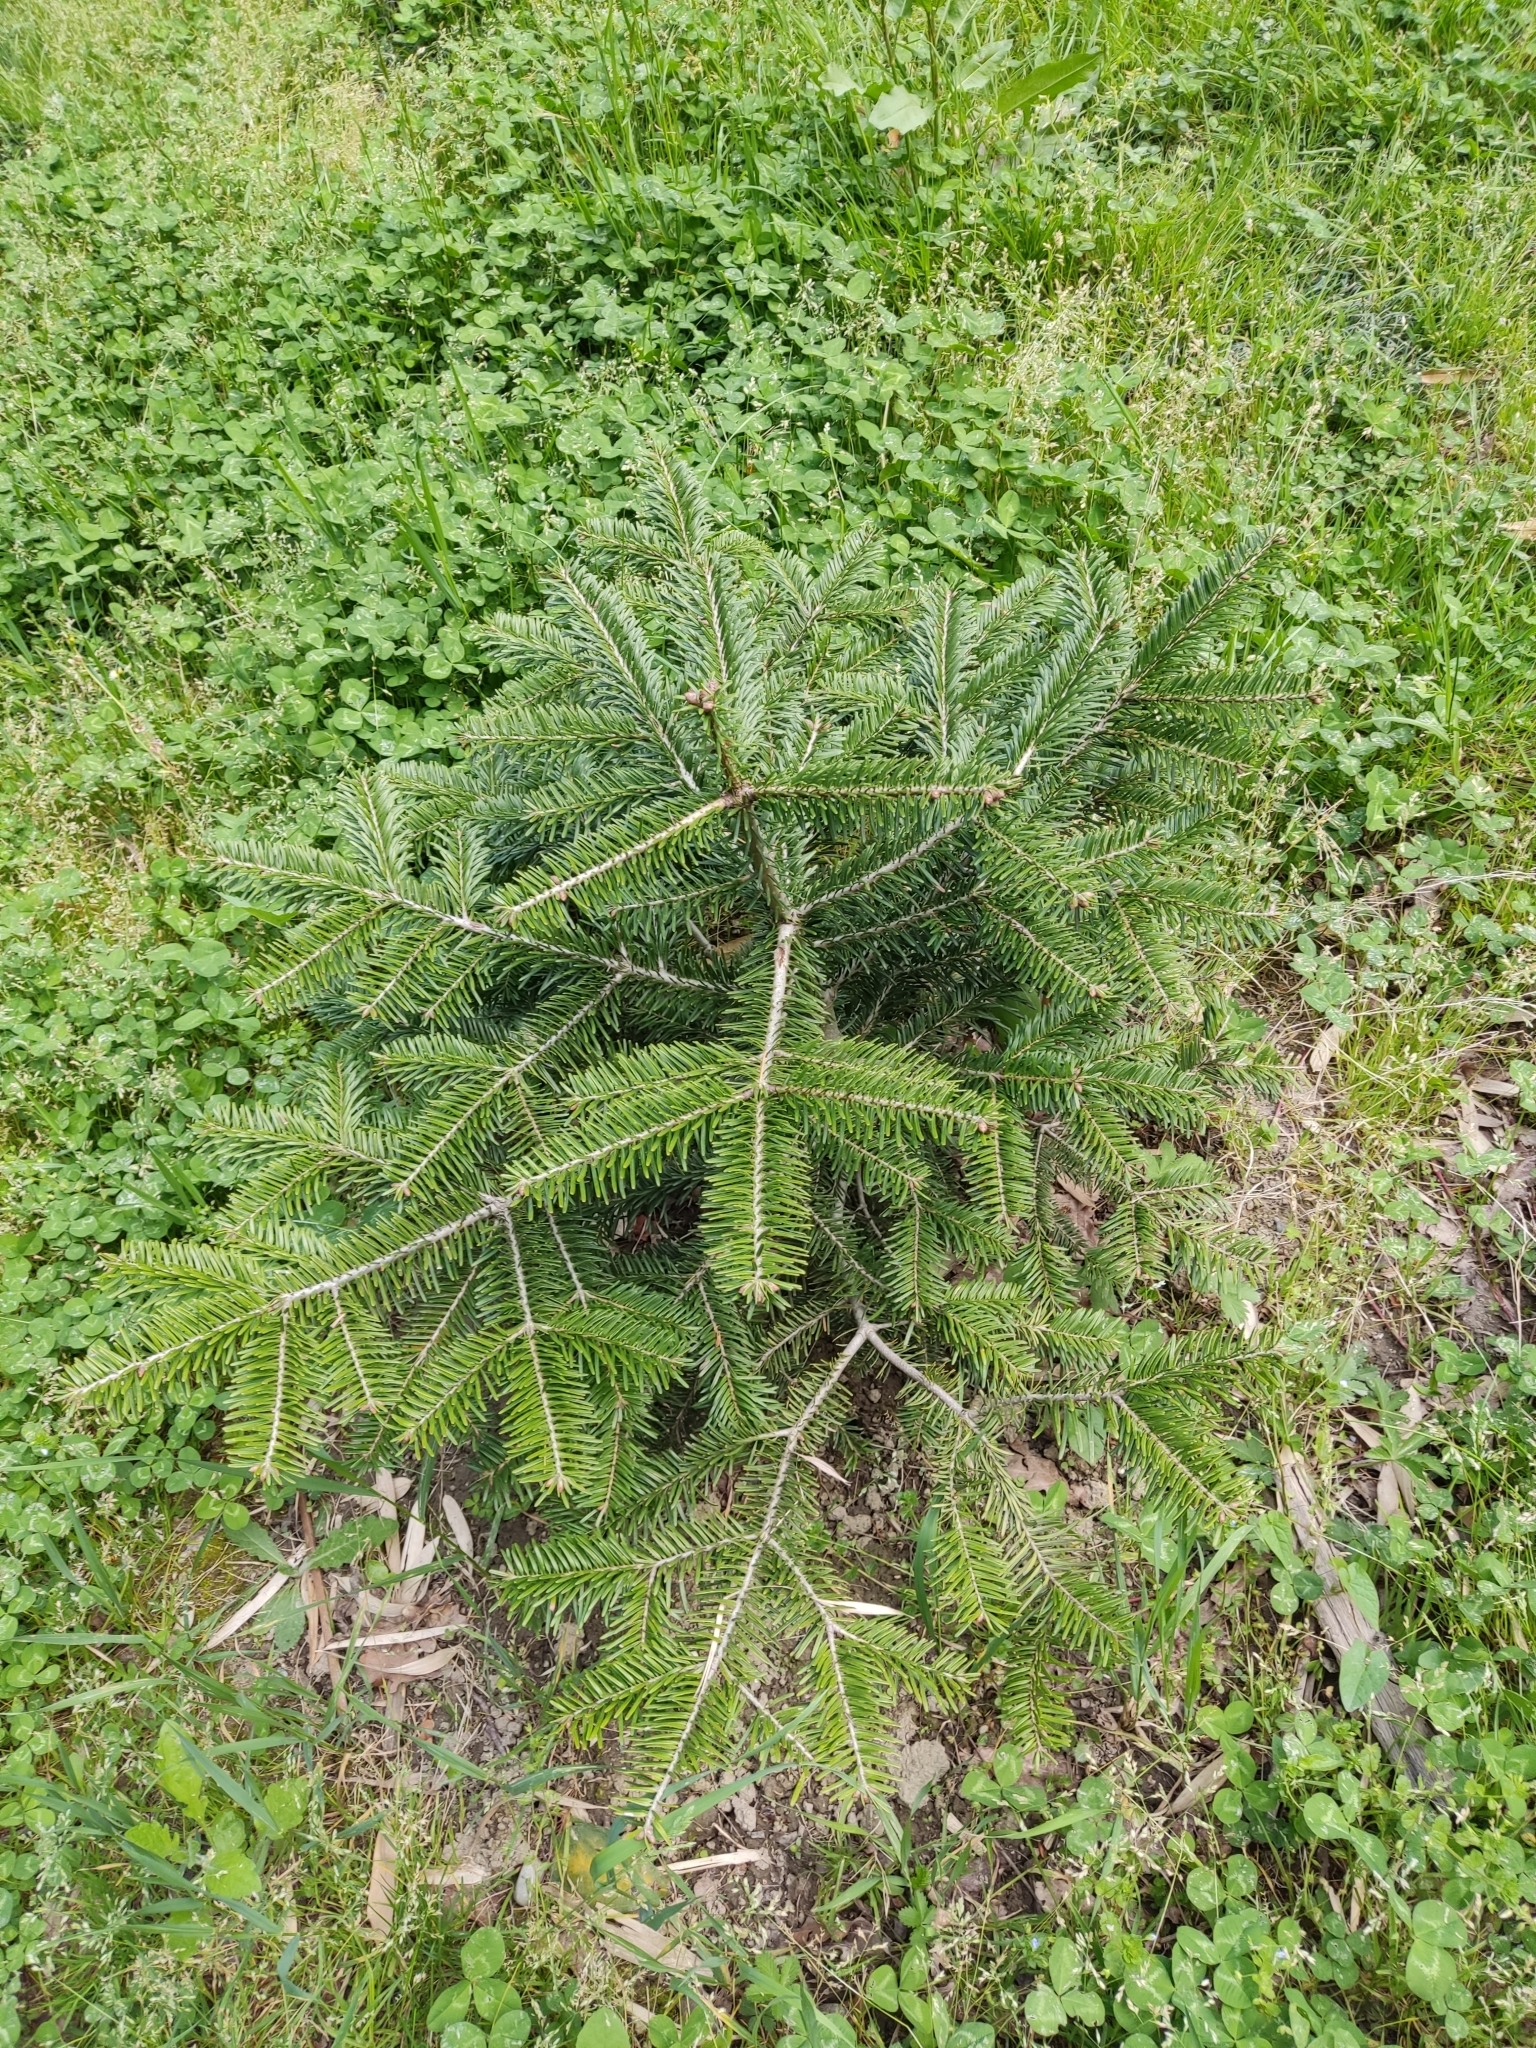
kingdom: Plantae
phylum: Tracheophyta
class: Pinopsida
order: Pinales
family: Pinaceae
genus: Abies
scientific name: Abies nordmanniana
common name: Caucasian fir
